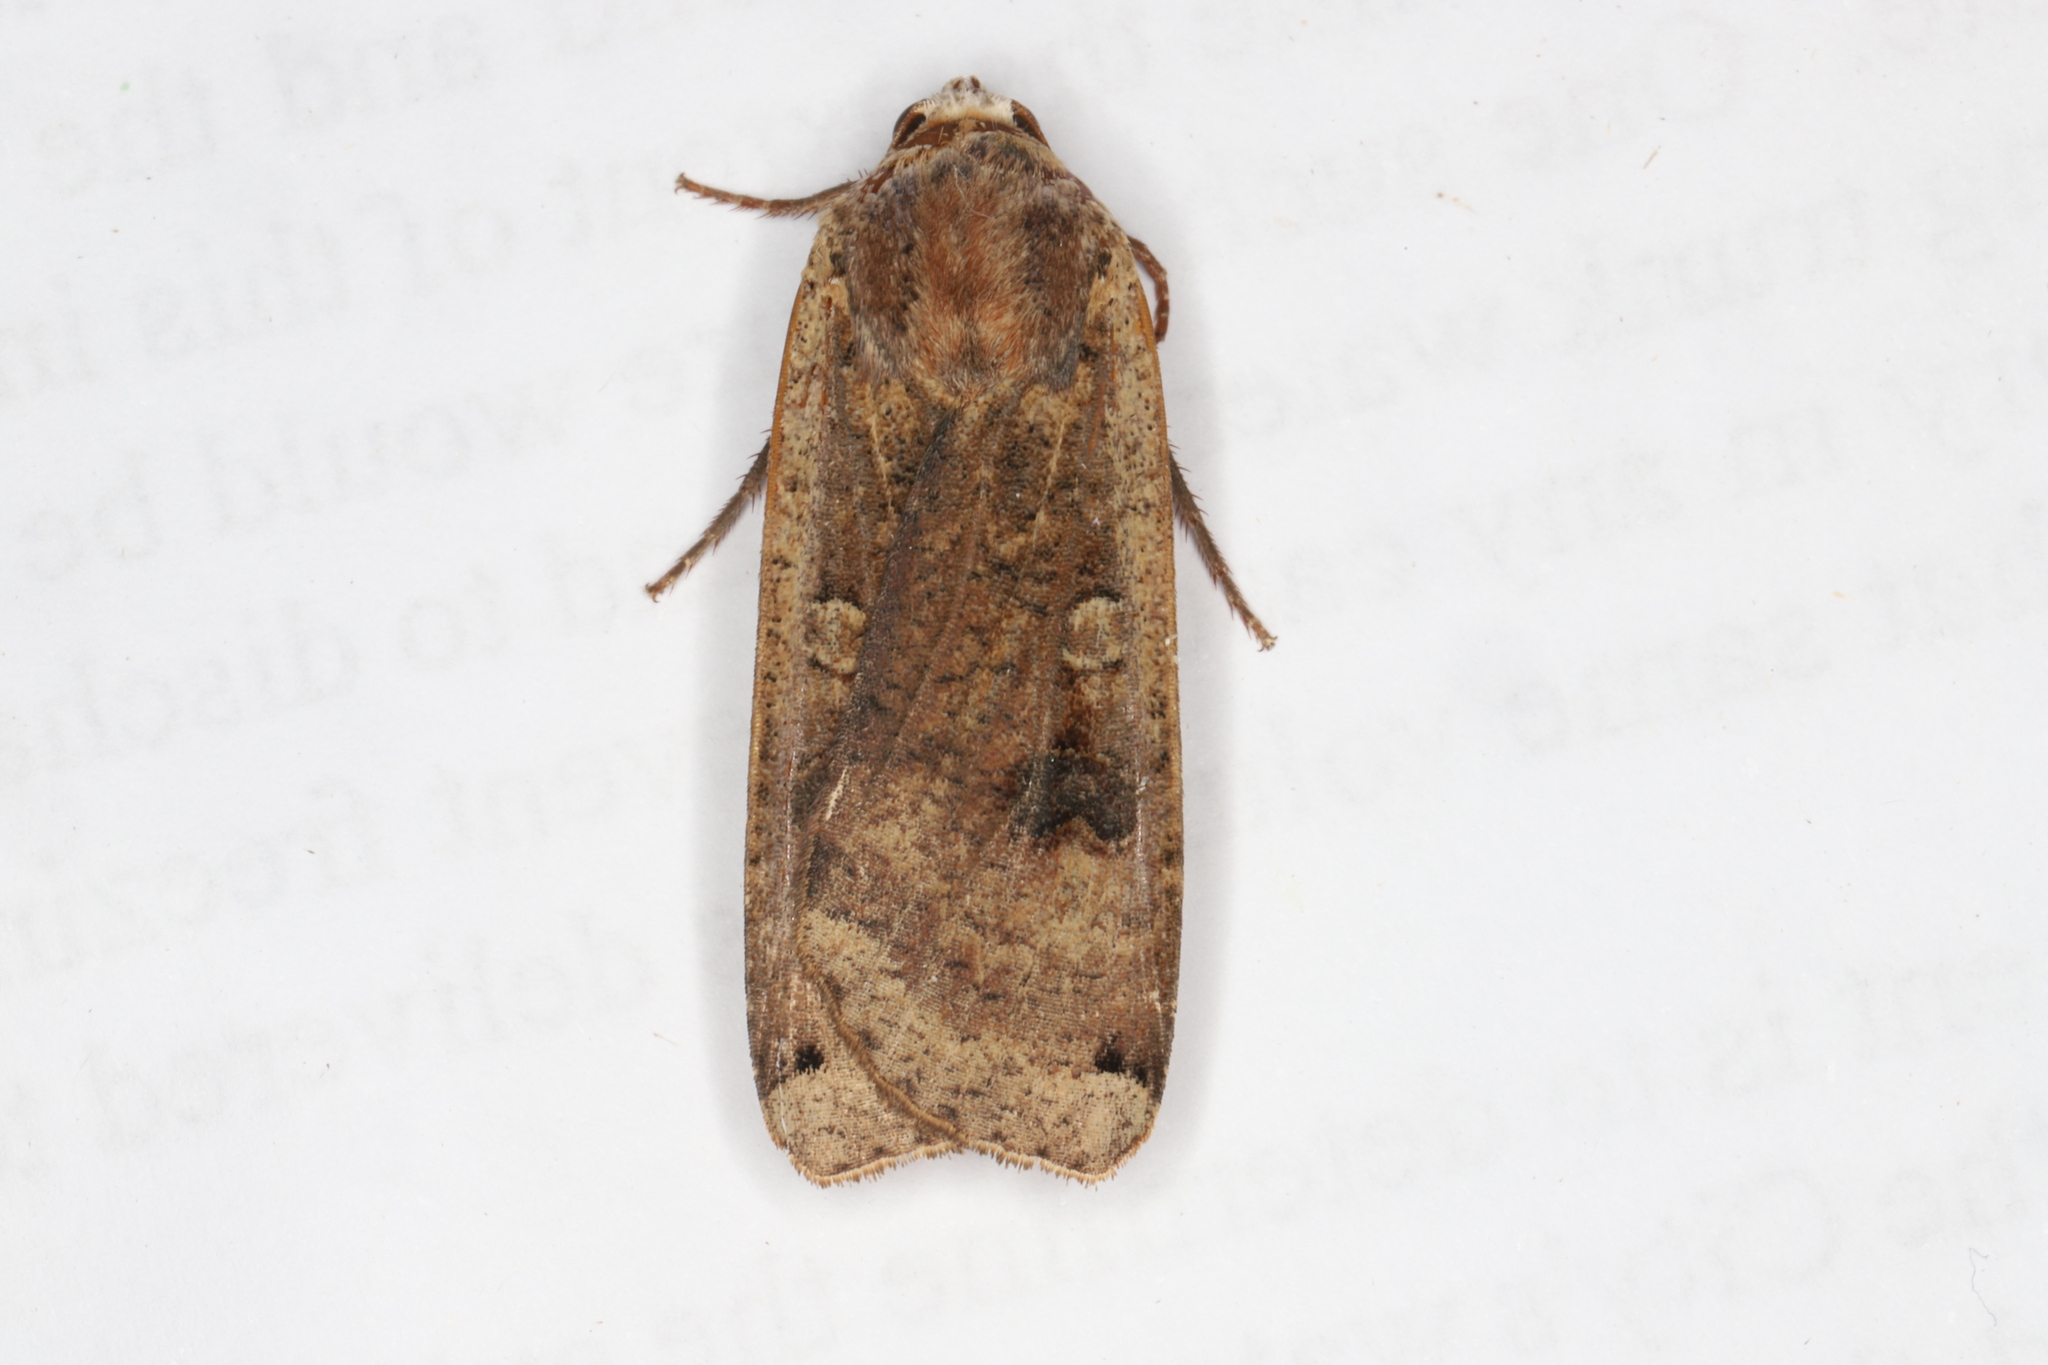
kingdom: Animalia
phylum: Arthropoda
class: Insecta
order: Lepidoptera
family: Noctuidae
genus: Noctua
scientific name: Noctua pronuba
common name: Large yellow underwing
